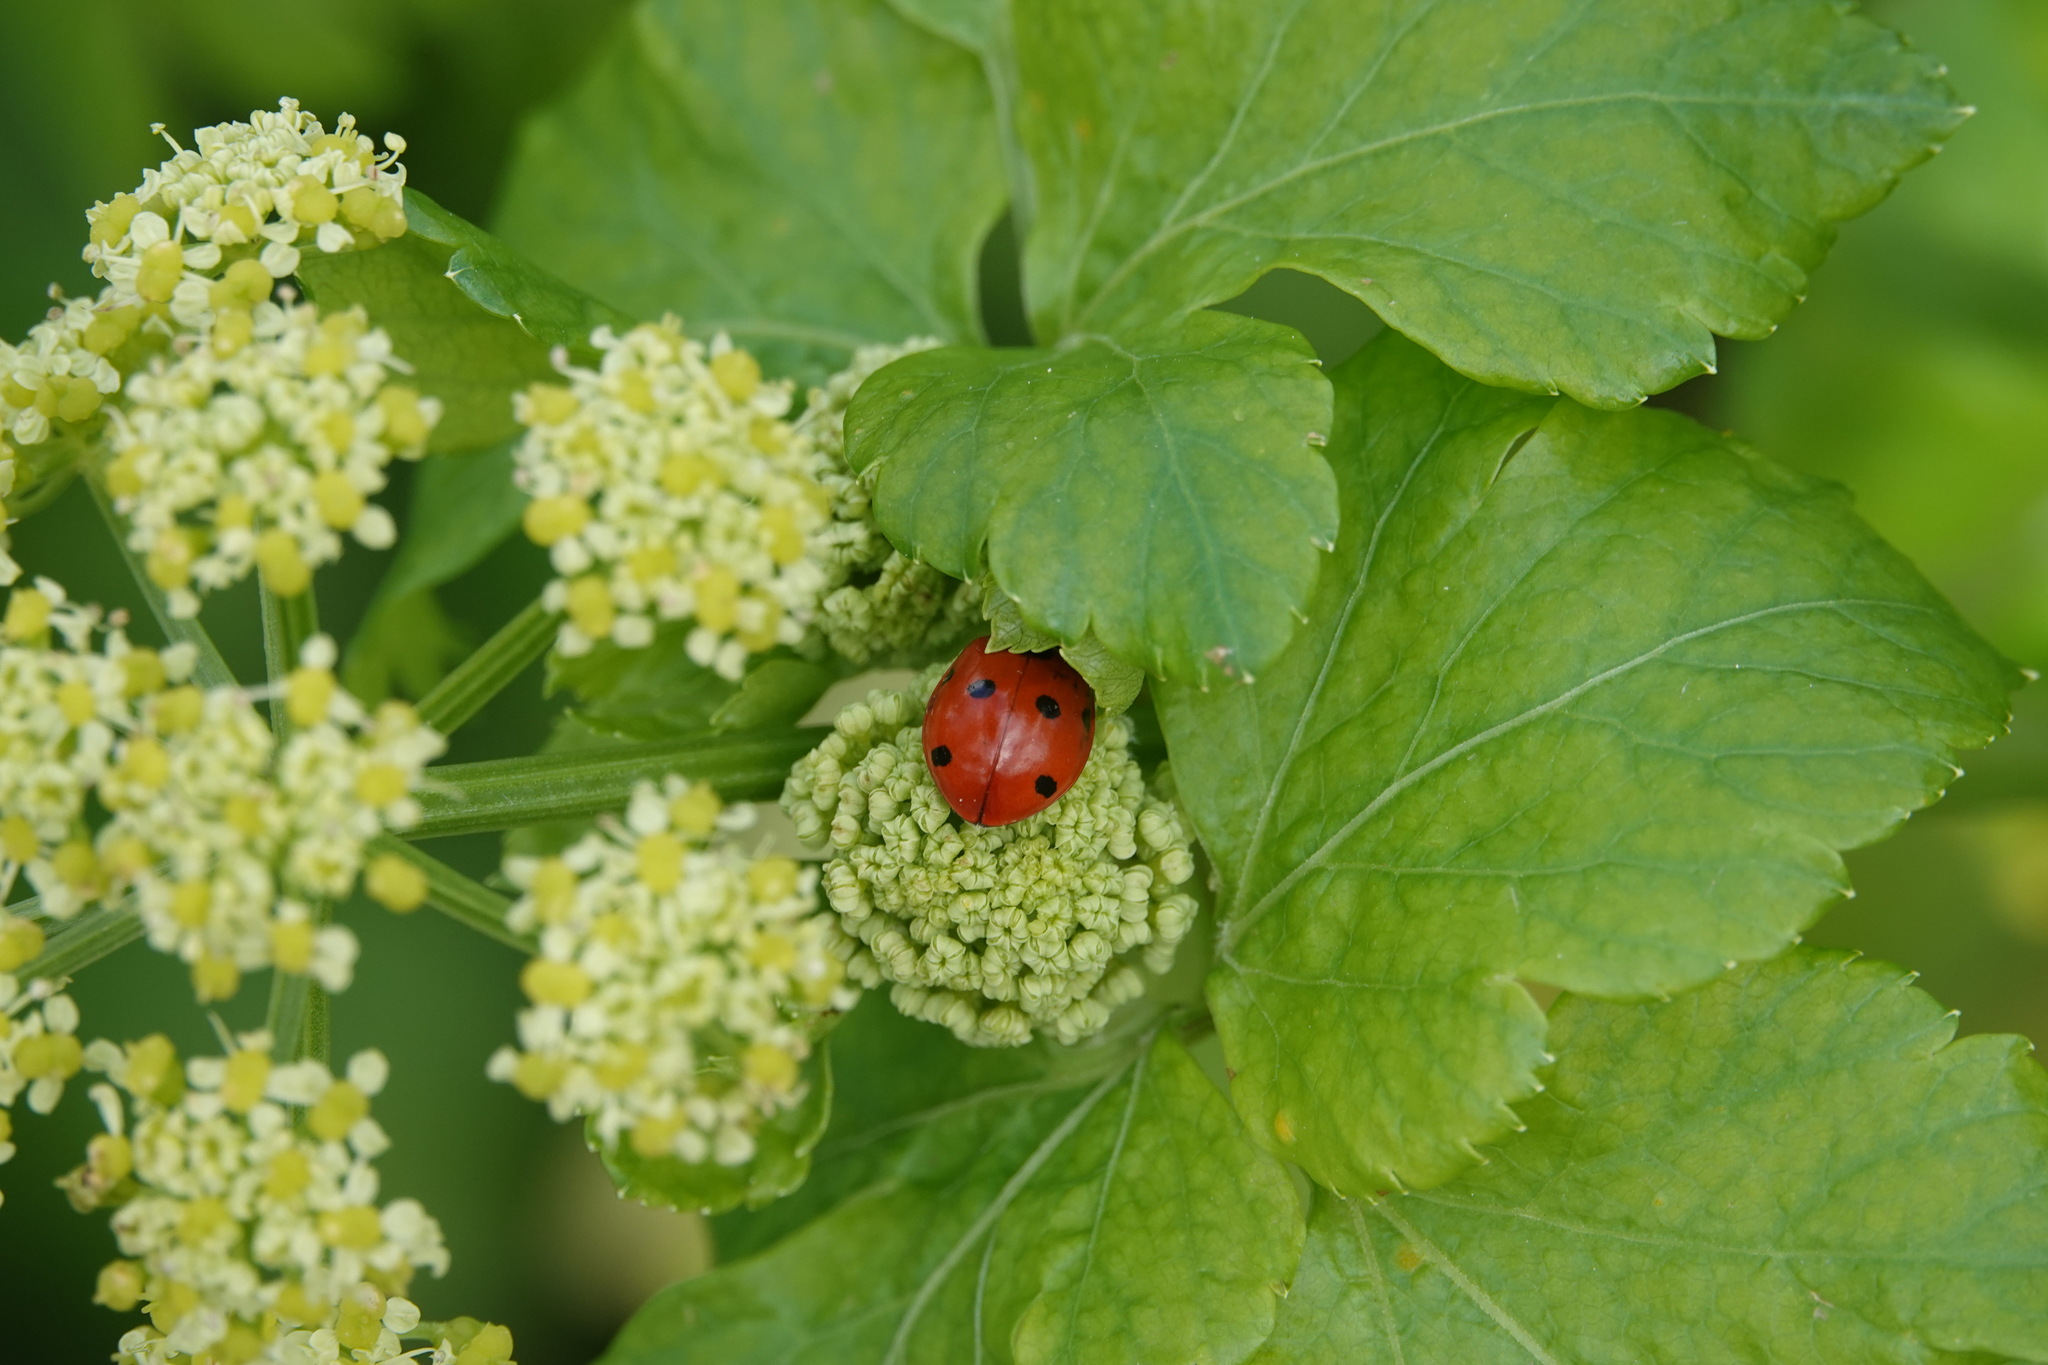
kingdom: Animalia
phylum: Arthropoda
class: Insecta
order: Coleoptera
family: Coccinellidae
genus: Coccinella
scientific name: Coccinella septempunctata
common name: Sevenspotted lady beetle
